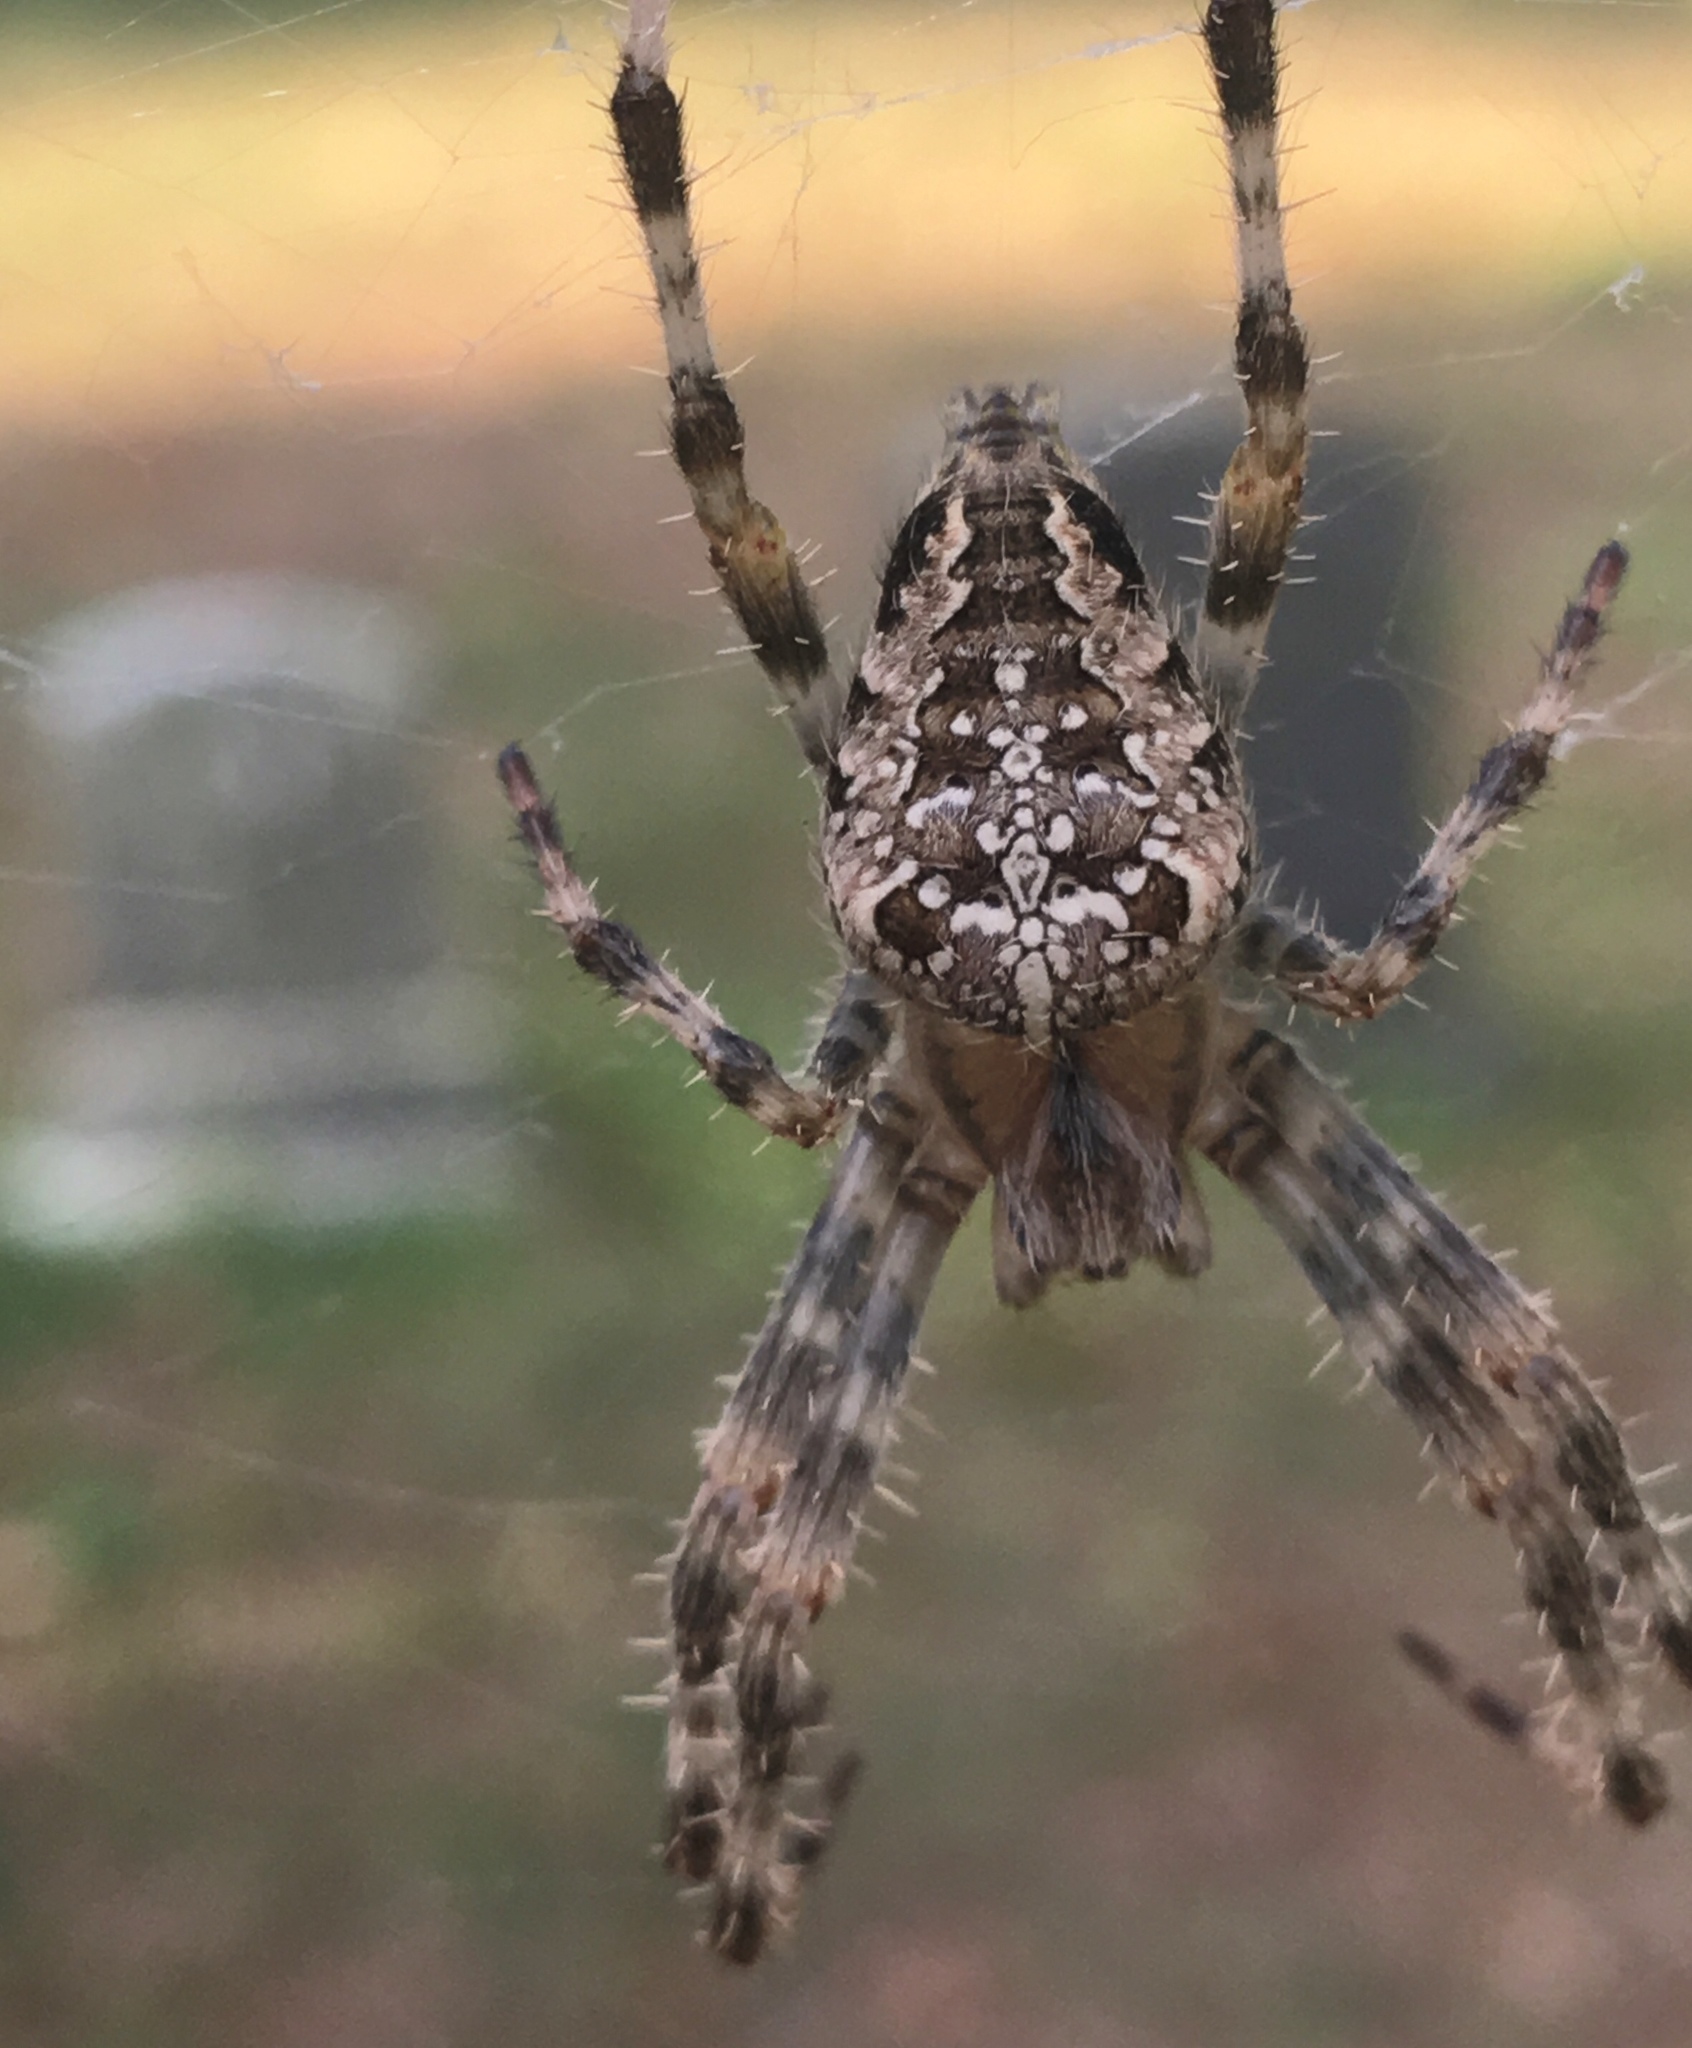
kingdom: Animalia
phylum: Arthropoda
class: Arachnida
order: Araneae
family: Araneidae
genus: Araneus
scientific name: Araneus diadematus
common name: Cross orbweaver
